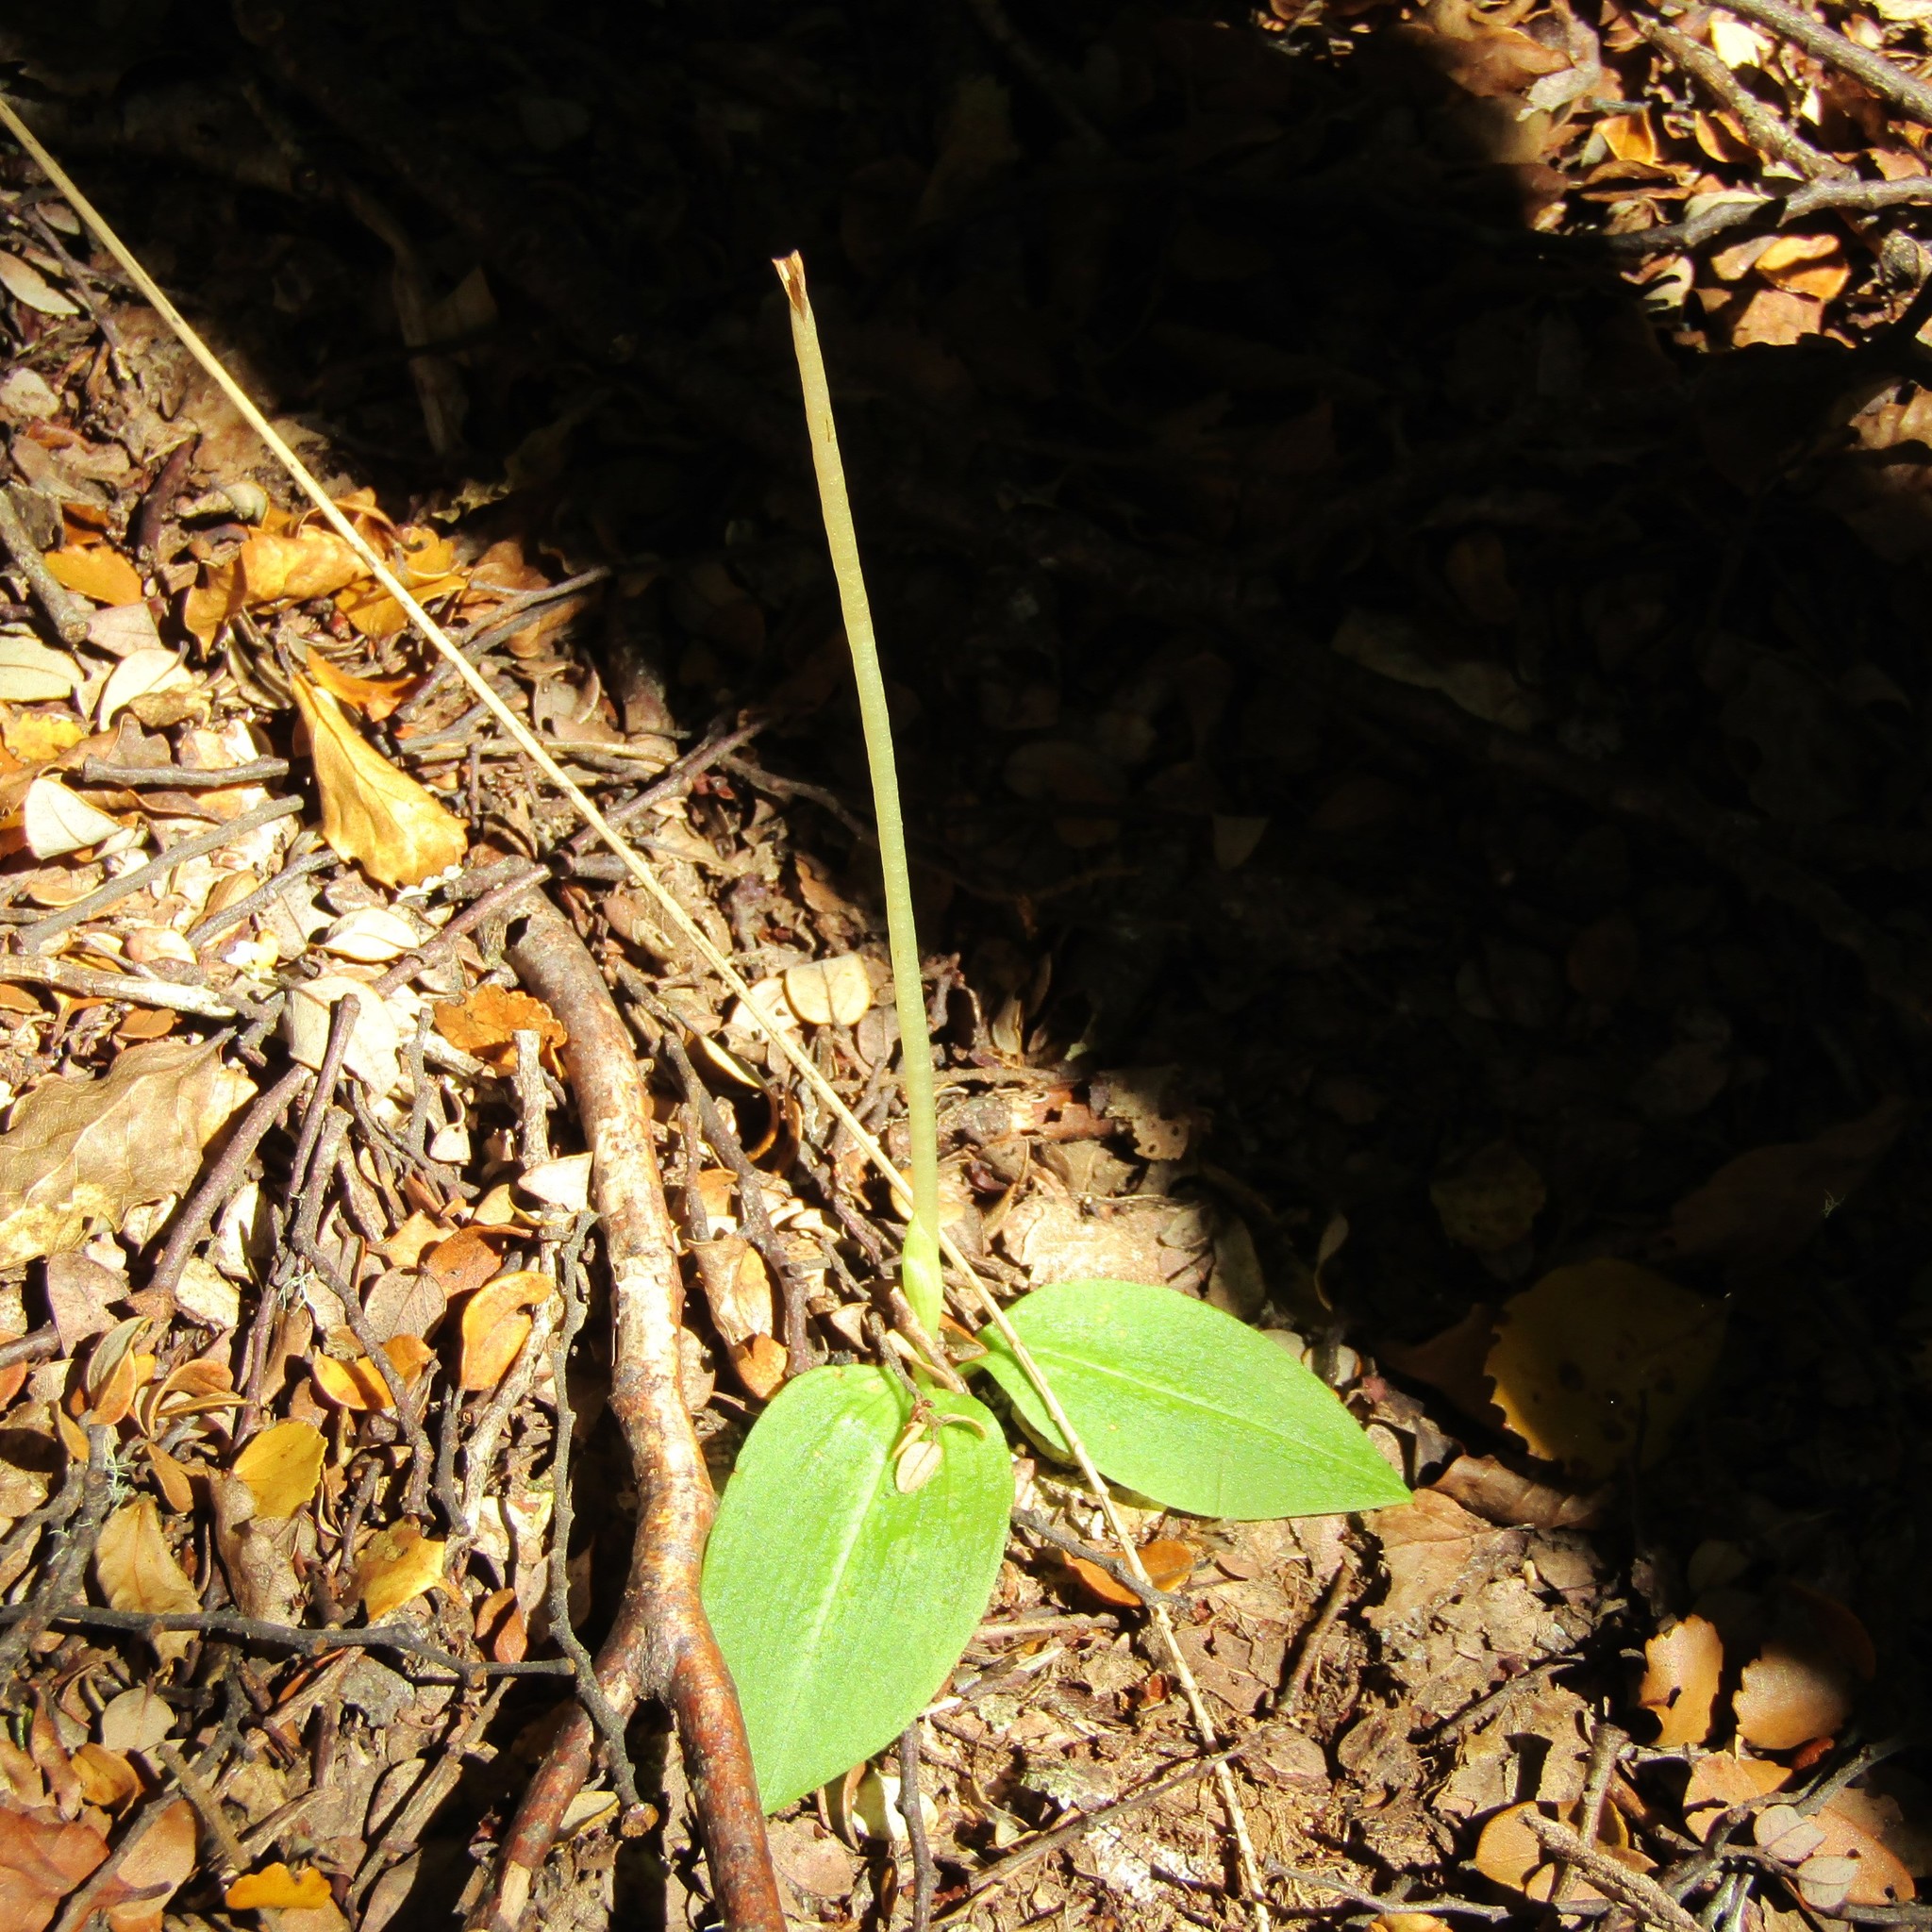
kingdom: Plantae
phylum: Tracheophyta
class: Liliopsida
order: Asparagales
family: Orchidaceae
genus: Chiloglottis
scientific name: Chiloglottis cornuta
